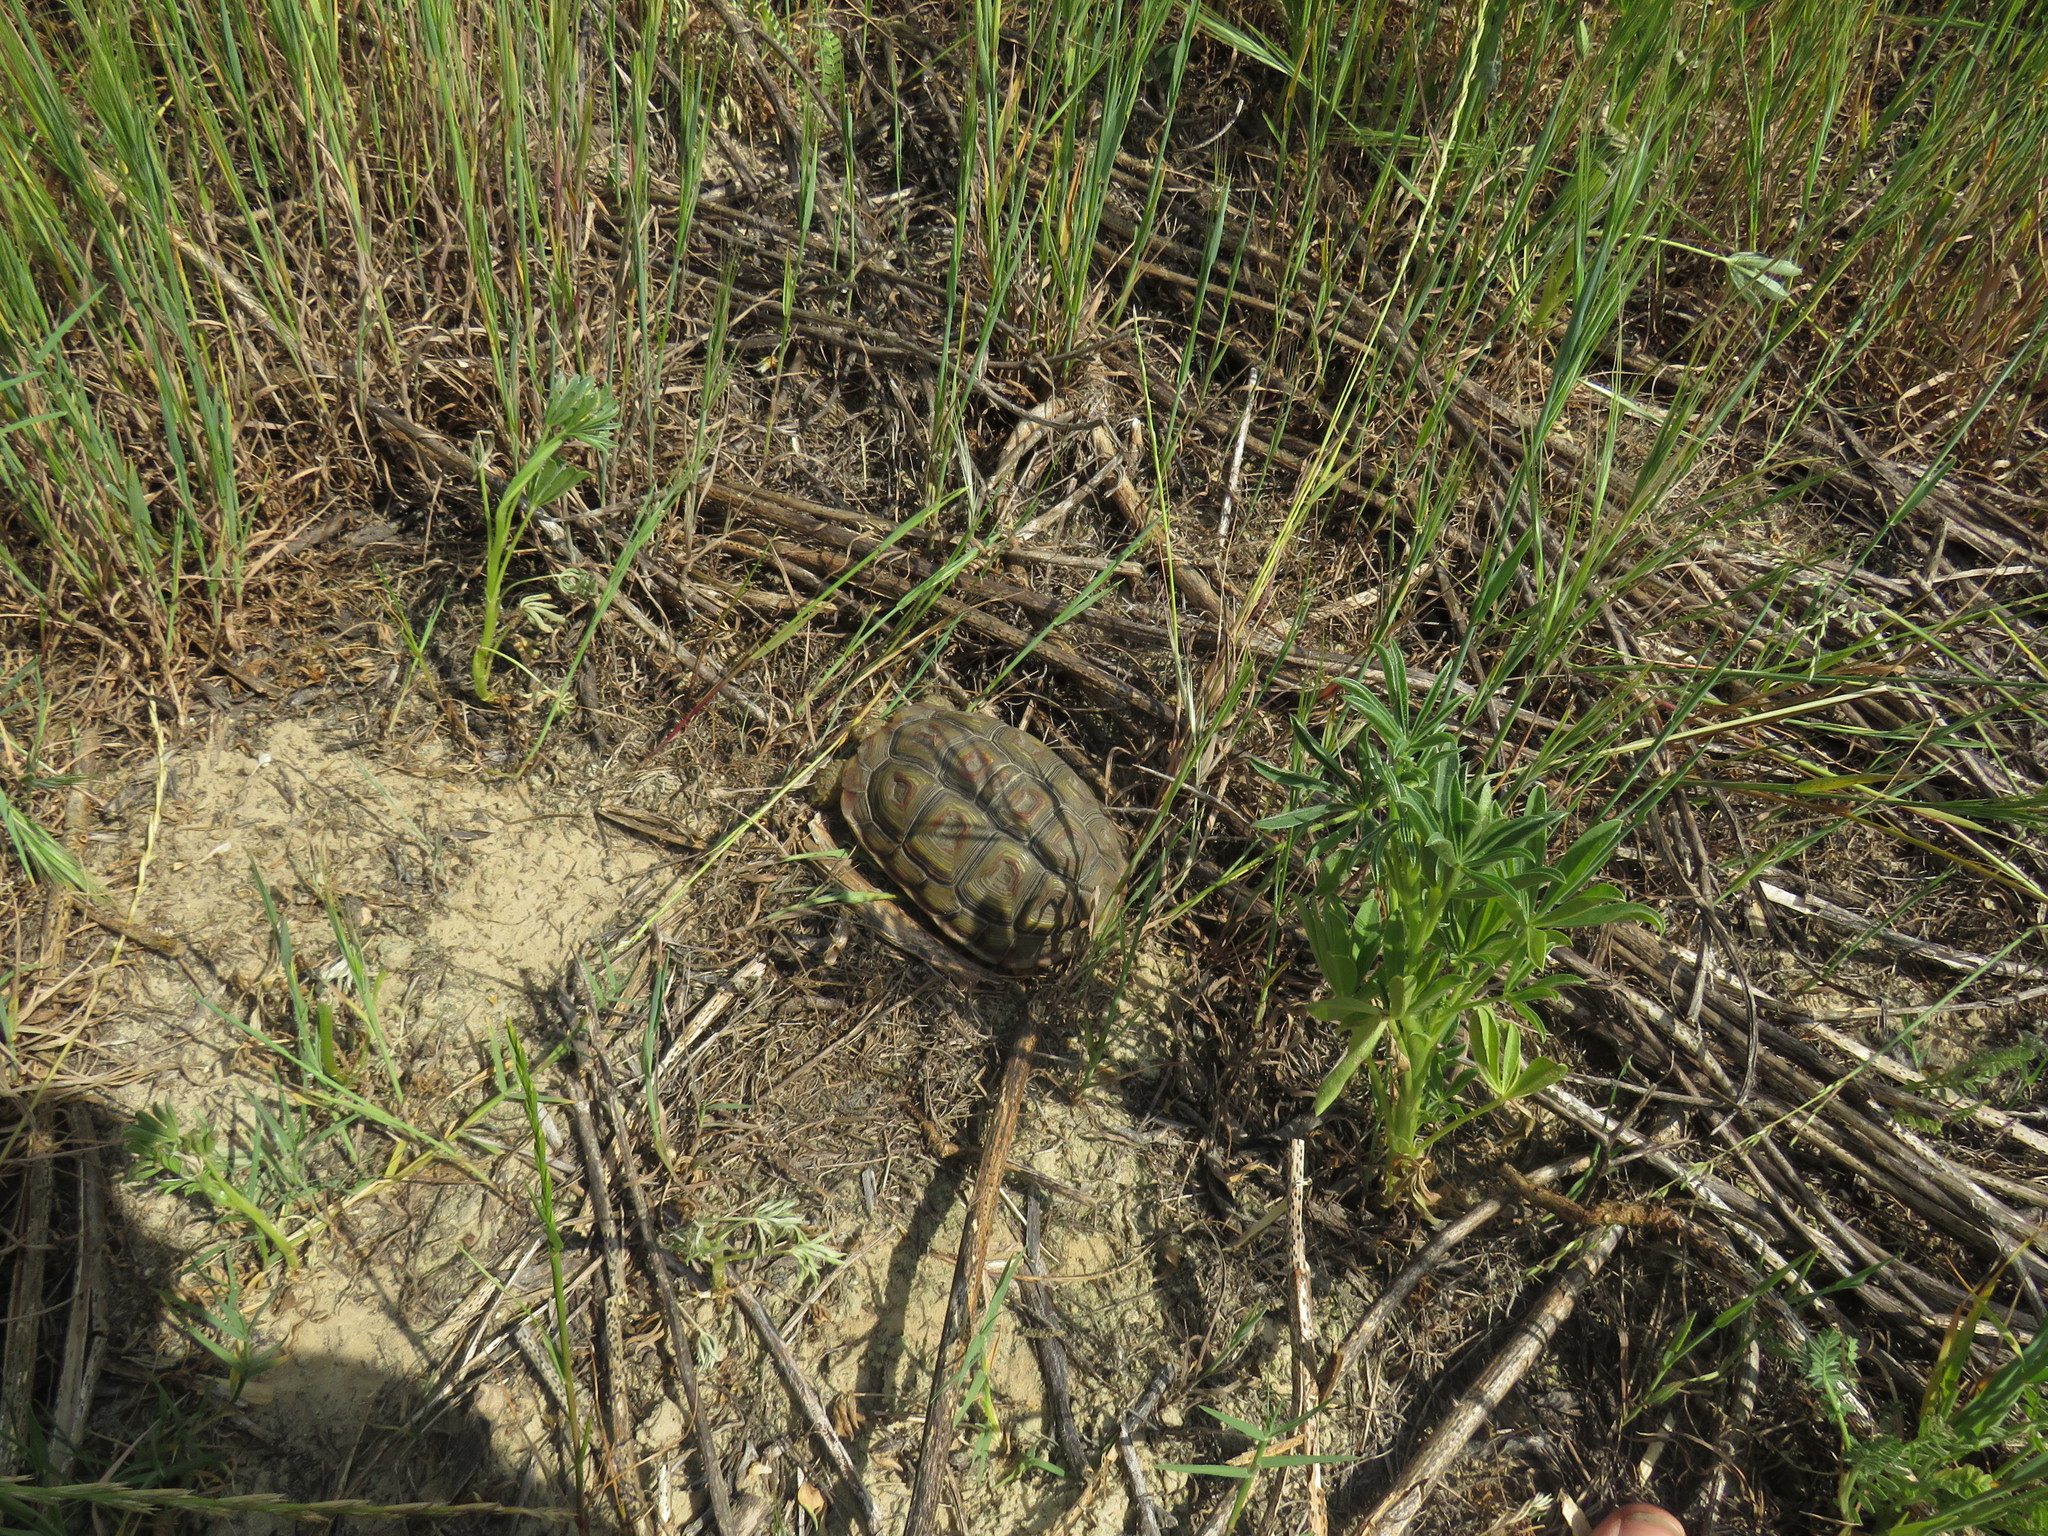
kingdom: Animalia
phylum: Chordata
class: Testudines
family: Testudinidae
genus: Homopus
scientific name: Homopus areolatus
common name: Parrot-beaked tortoise
